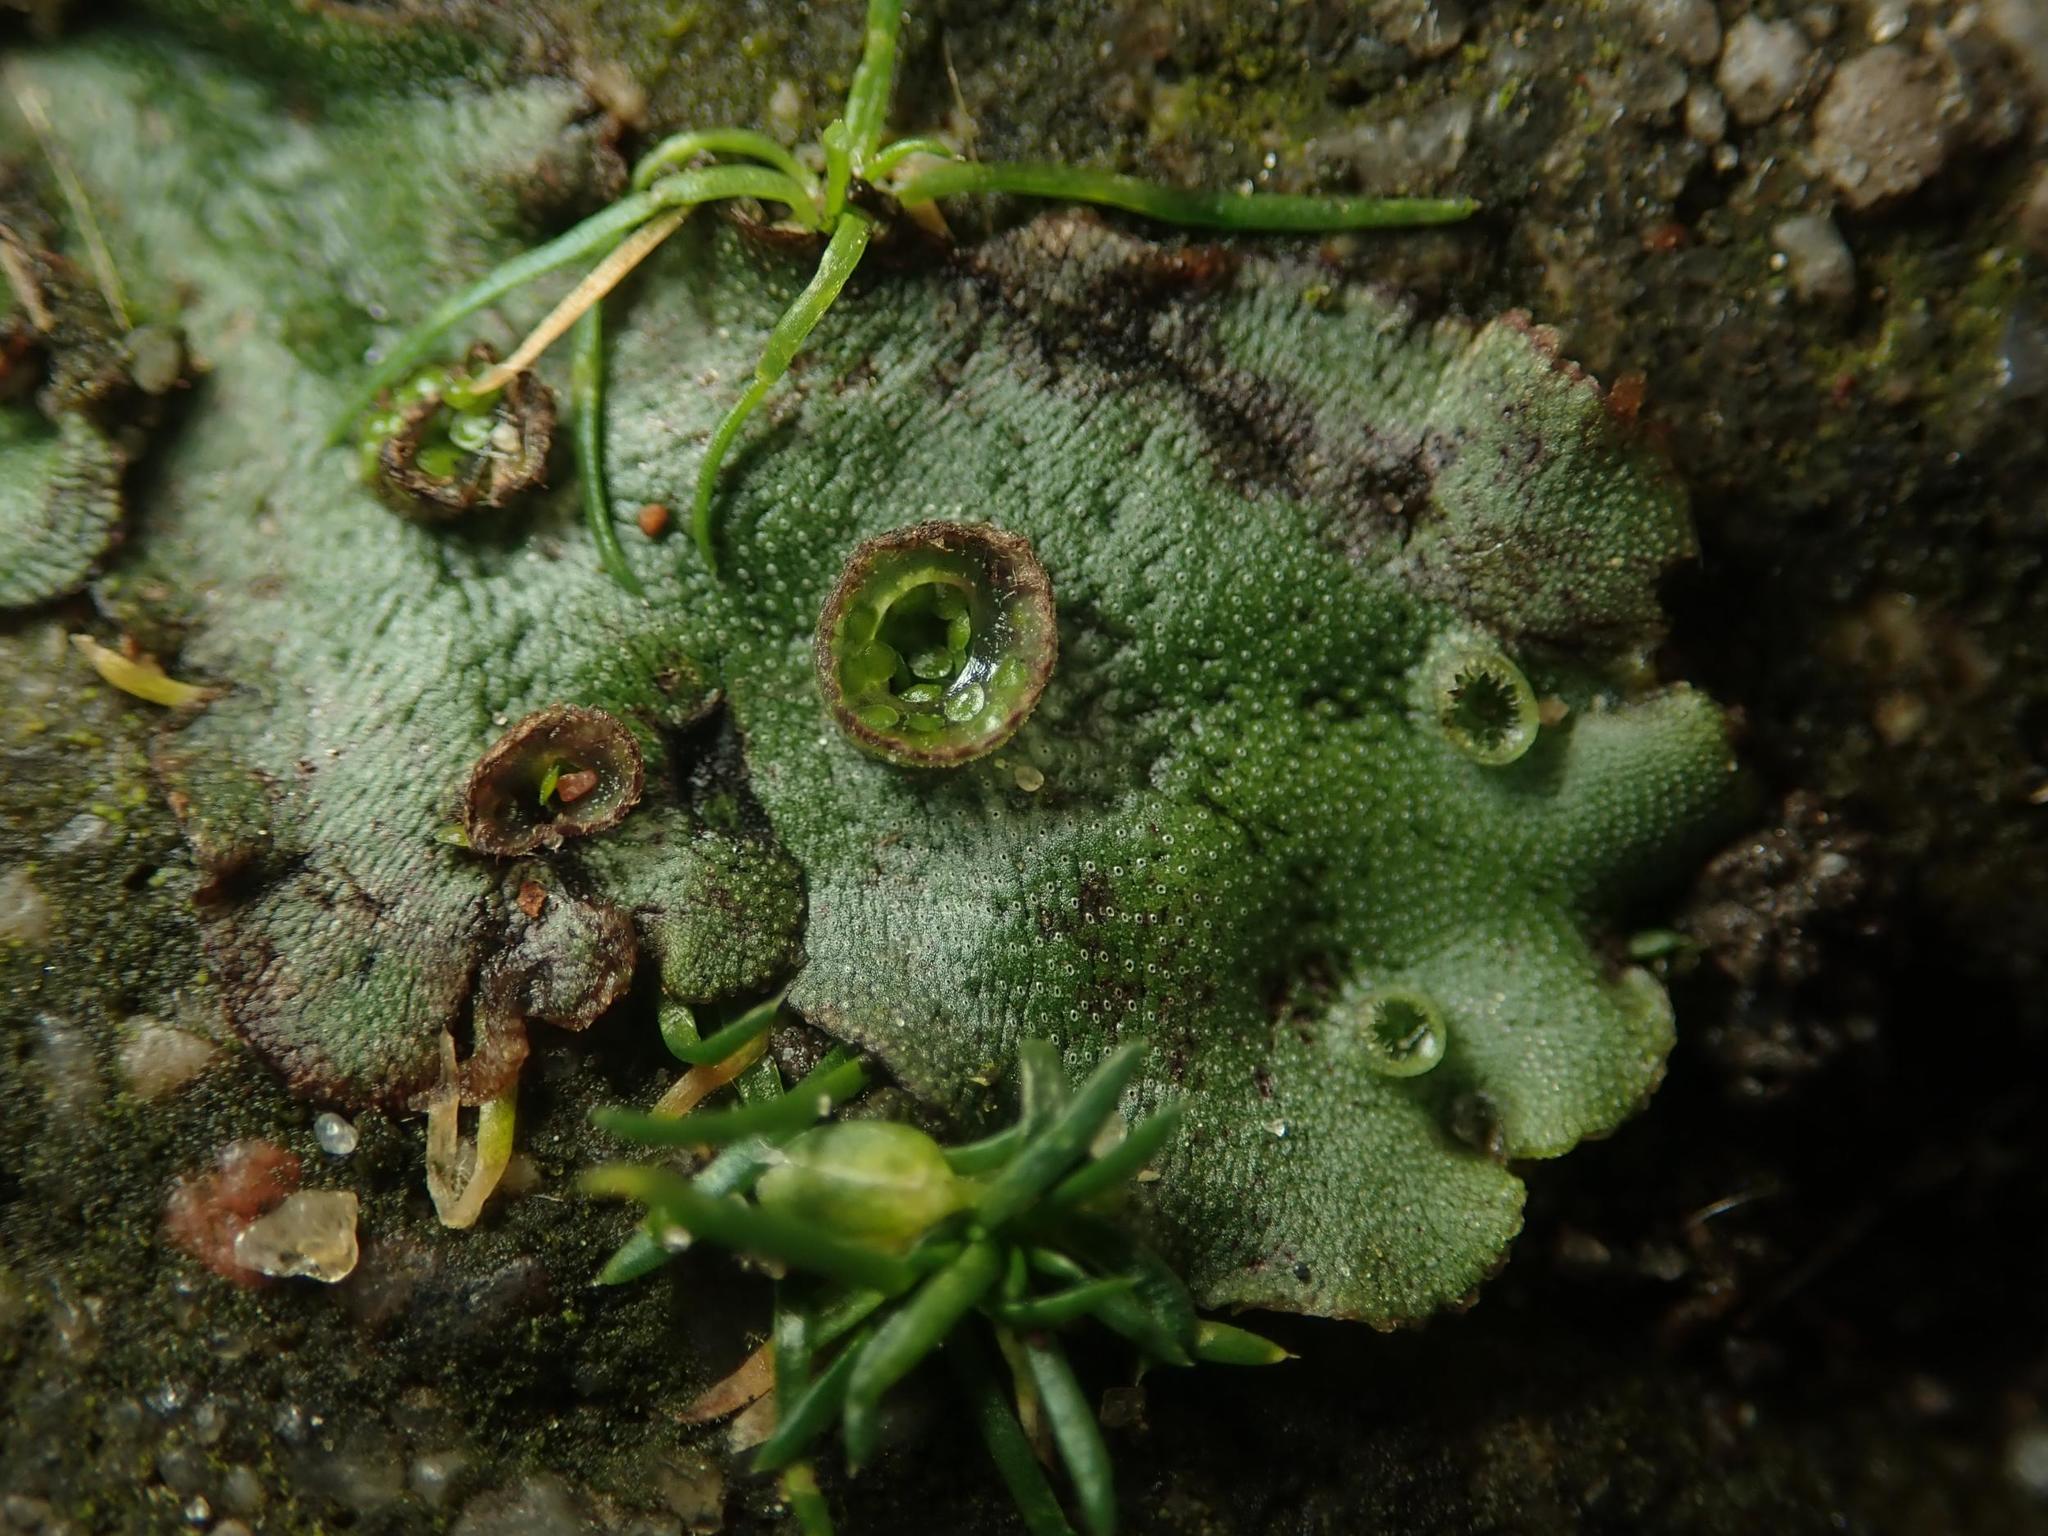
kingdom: Plantae
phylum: Marchantiophyta
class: Marchantiopsida
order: Marchantiales
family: Marchantiaceae
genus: Marchantia
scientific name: Marchantia polymorpha
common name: Common liverwort
